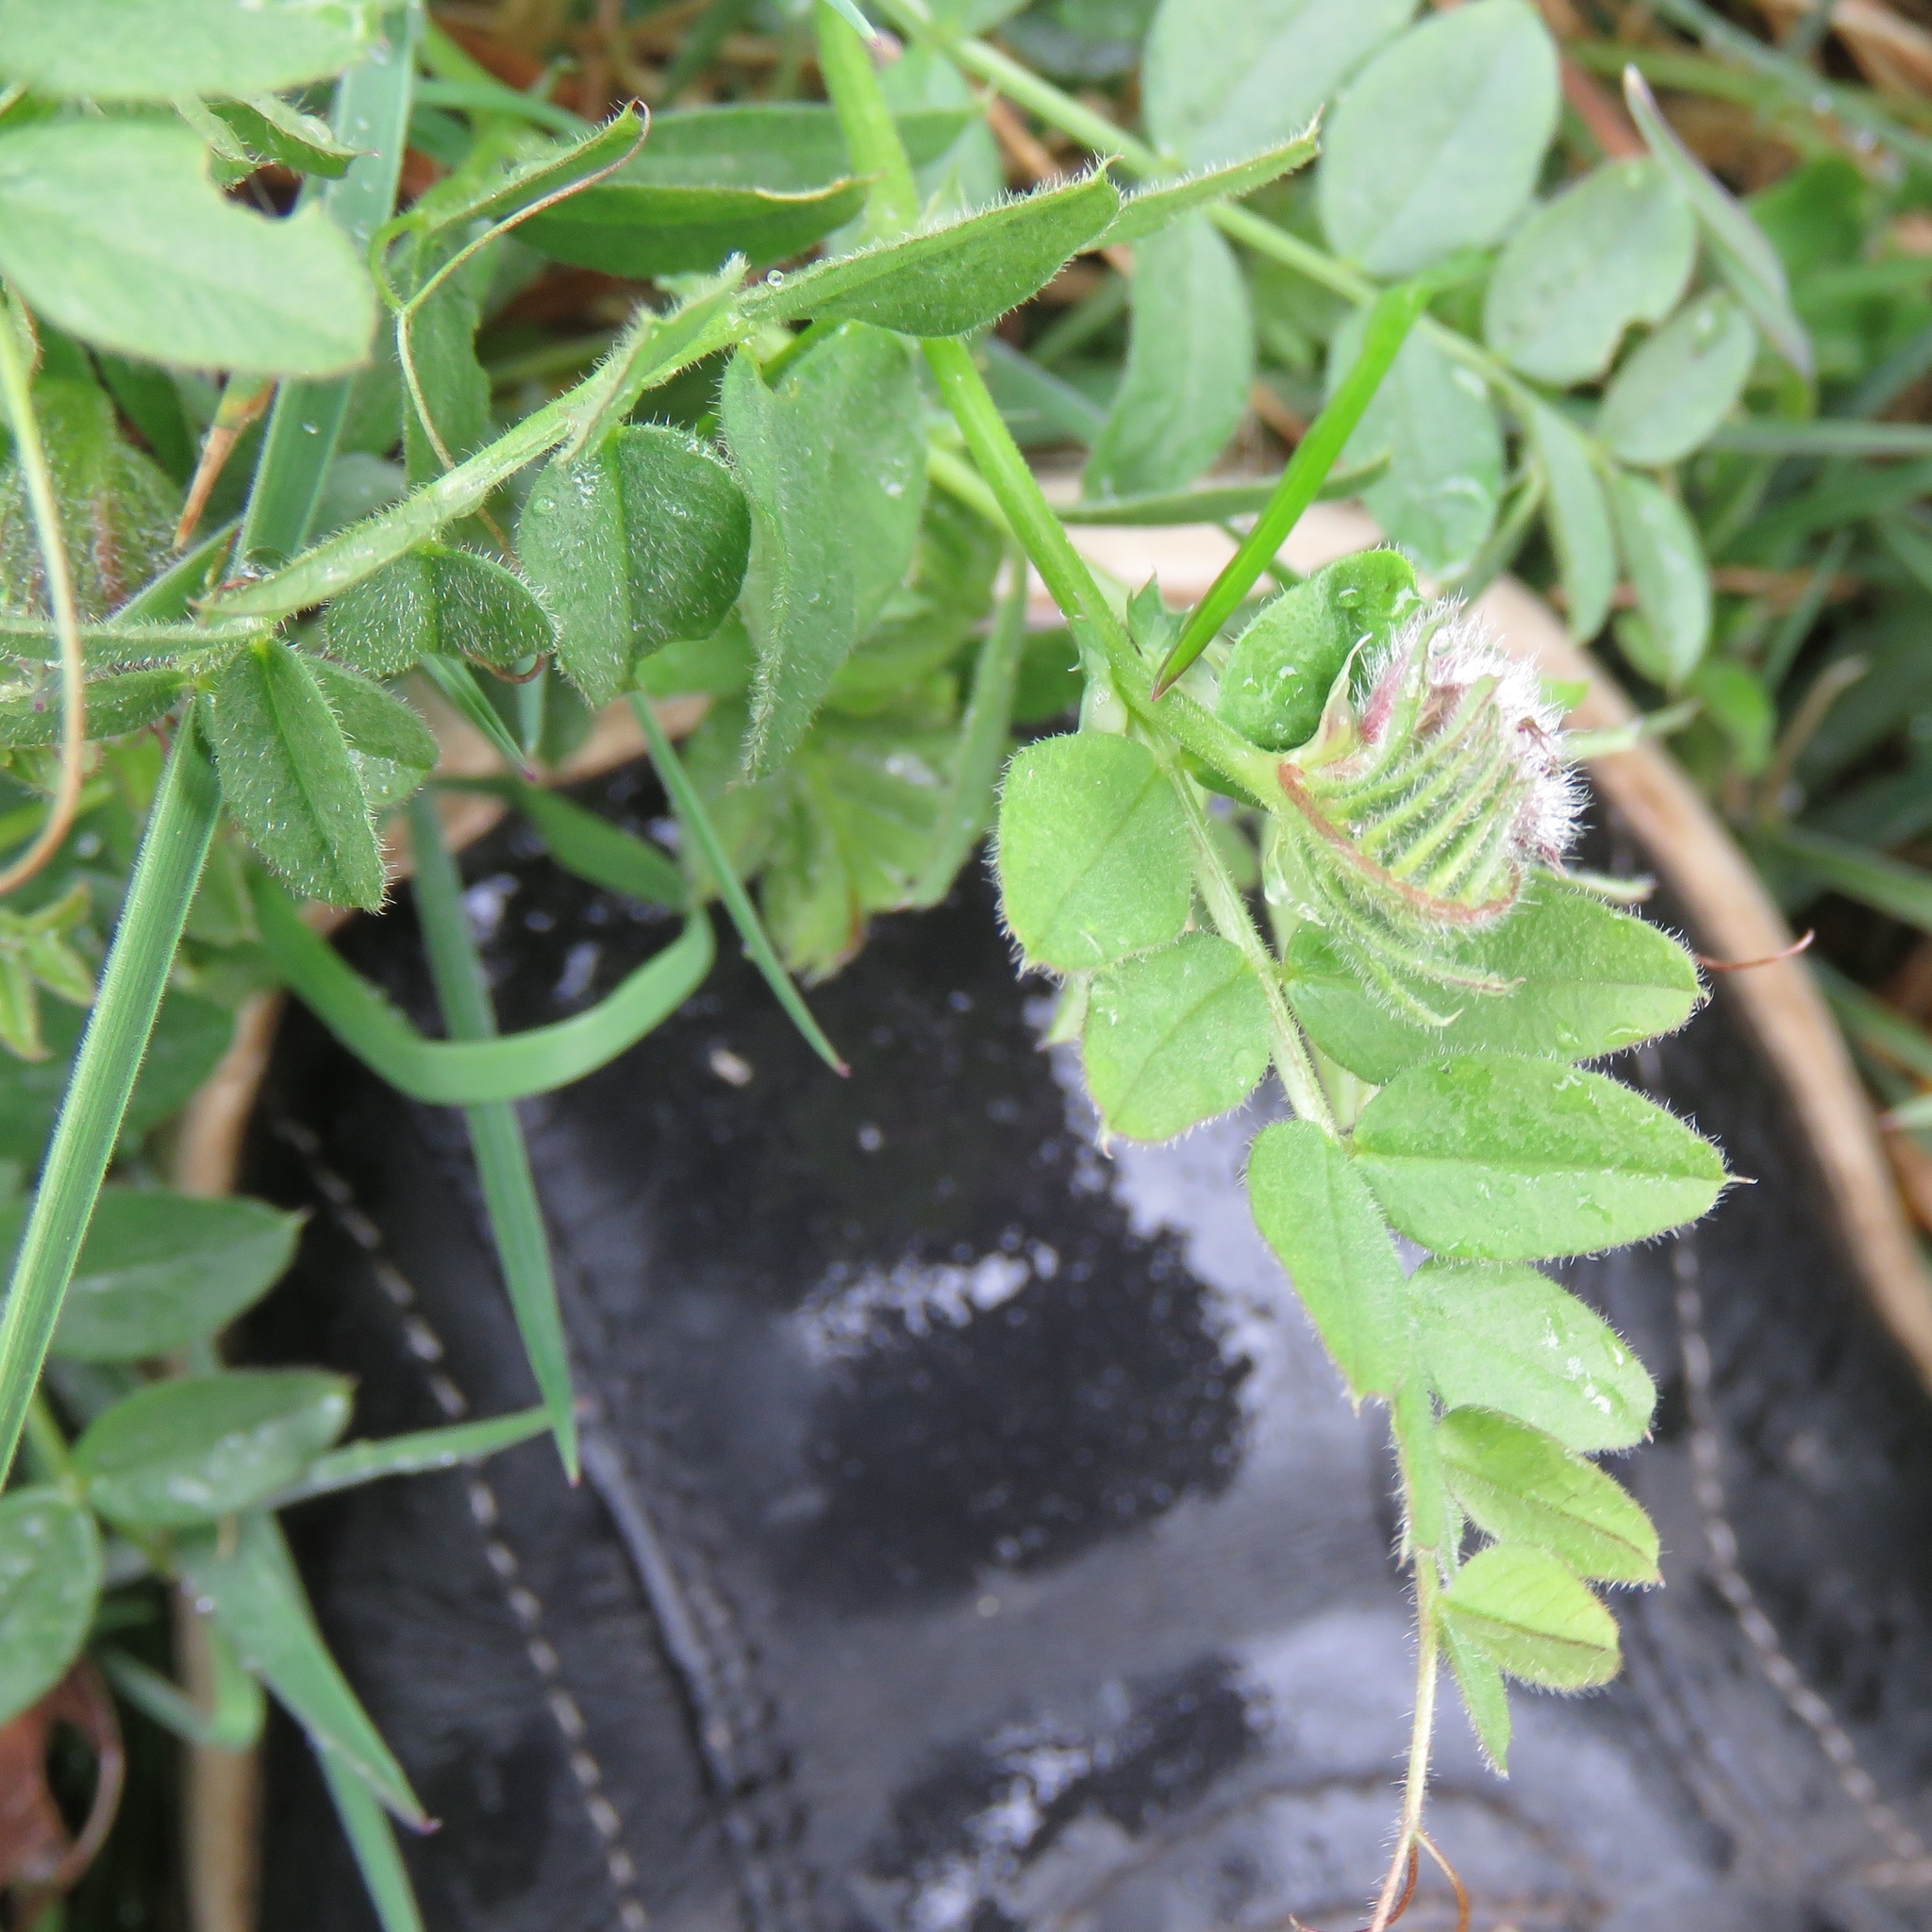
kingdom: Plantae
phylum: Tracheophyta
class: Magnoliopsida
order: Fabales
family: Fabaceae
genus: Vicia
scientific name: Vicia sepium
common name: Bush vetch
